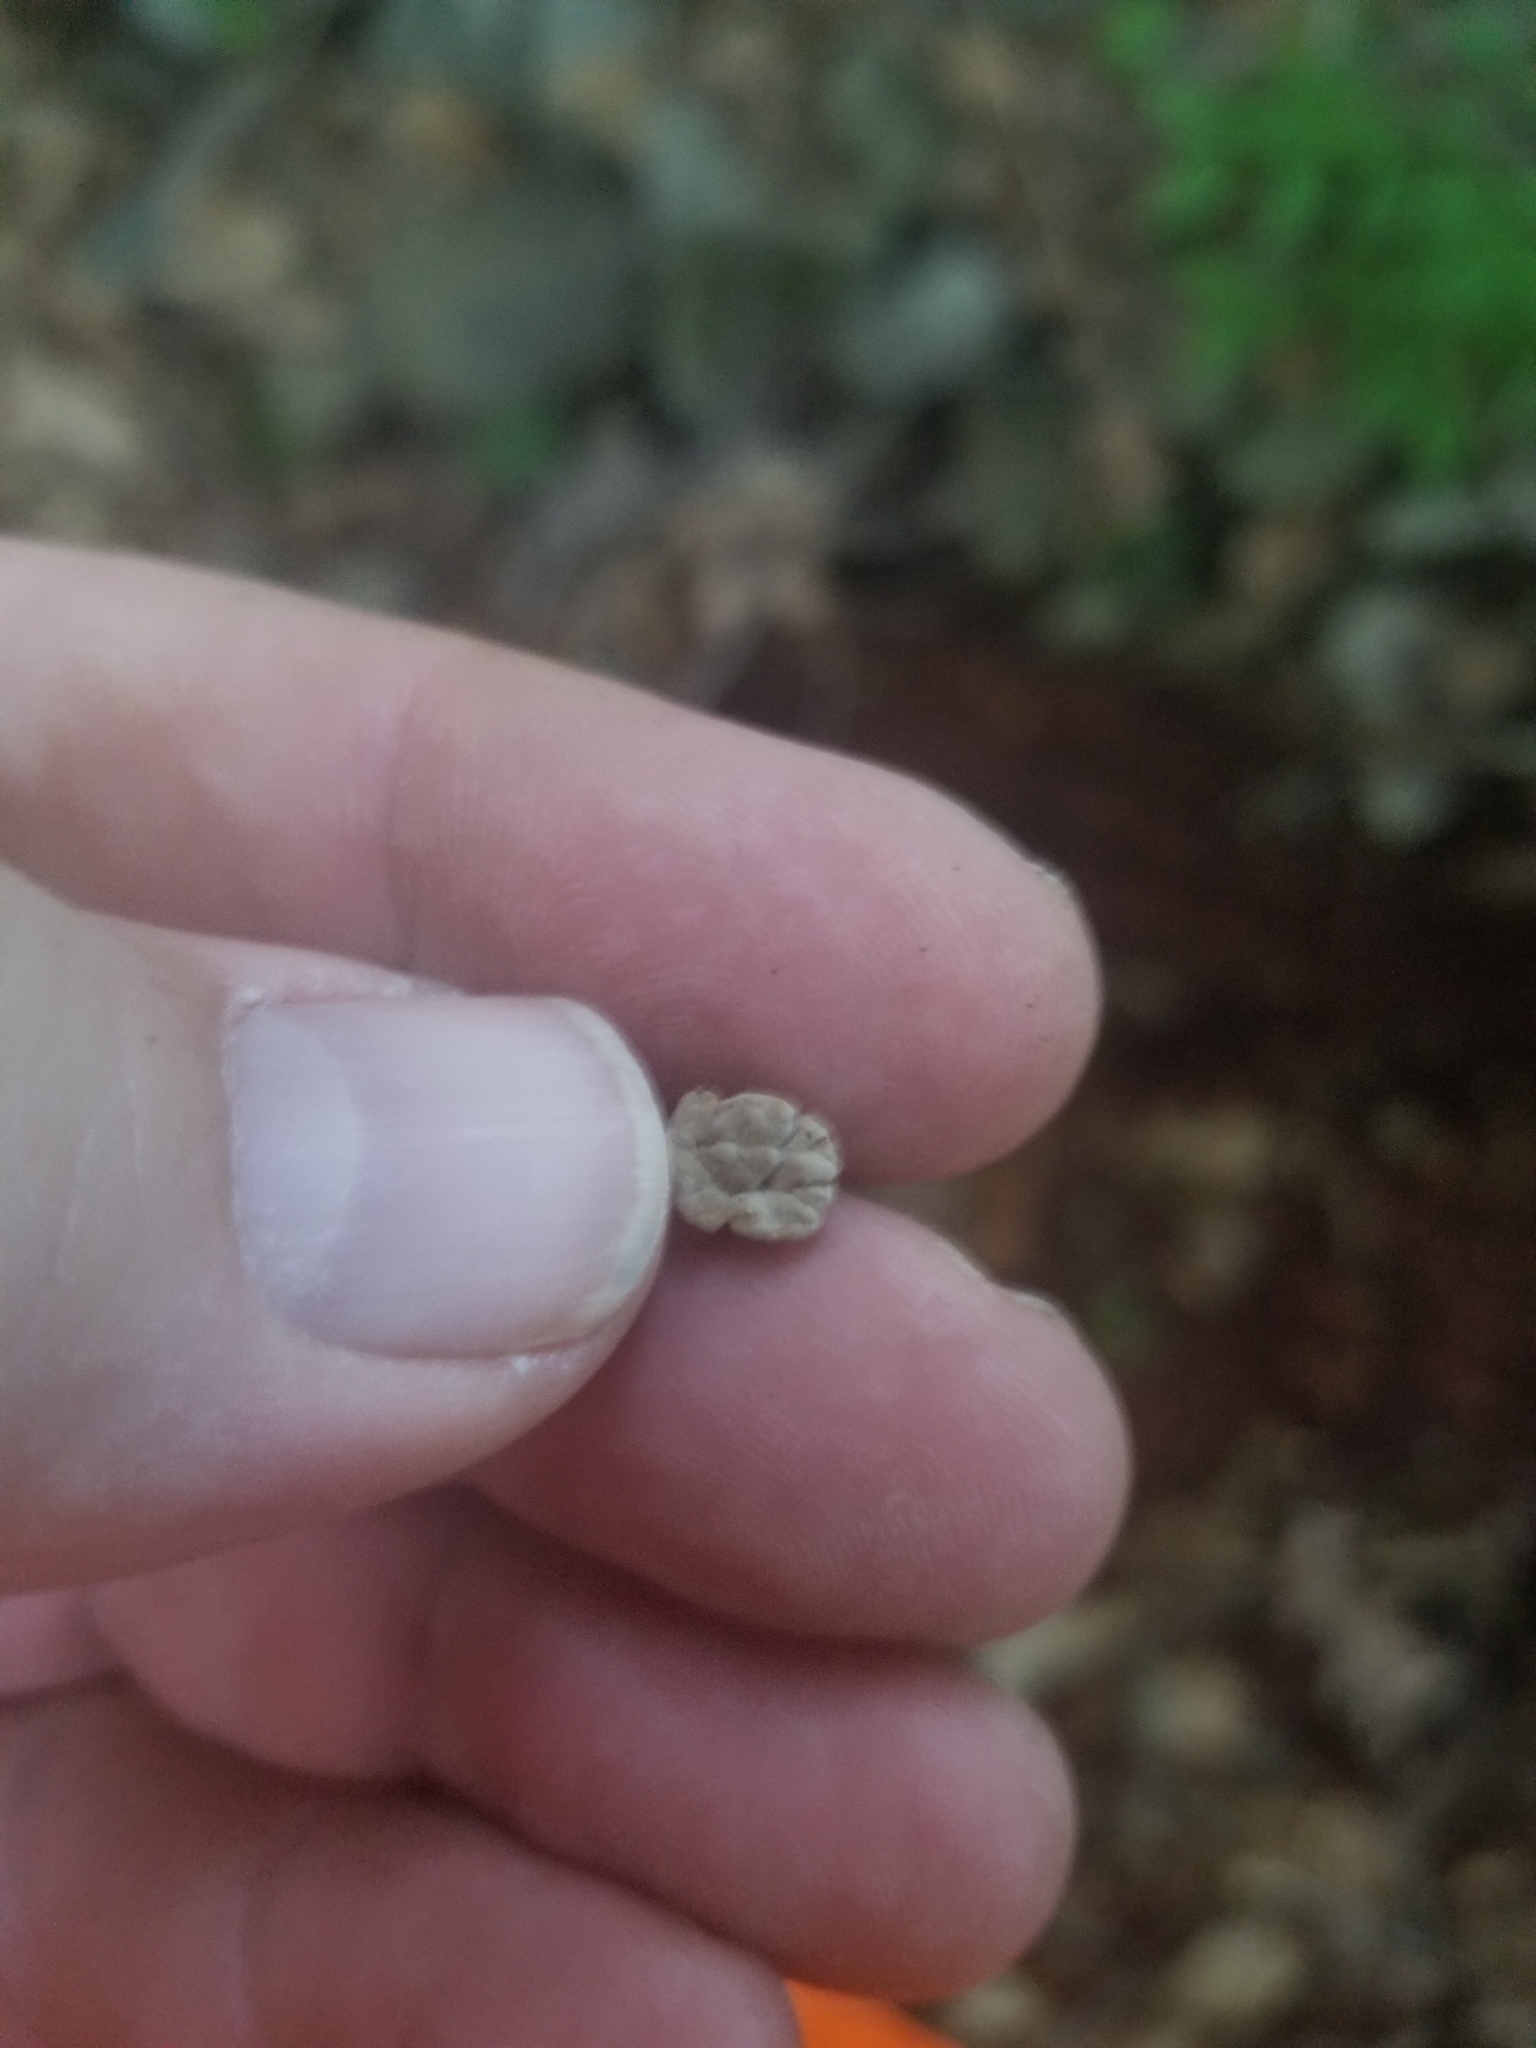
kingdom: Fungi
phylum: Basidiomycota
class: Agaricomycetes
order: Russulales
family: Stereaceae
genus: Xylobolus
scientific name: Xylobolus frustulatus
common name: Ceramic parchment
